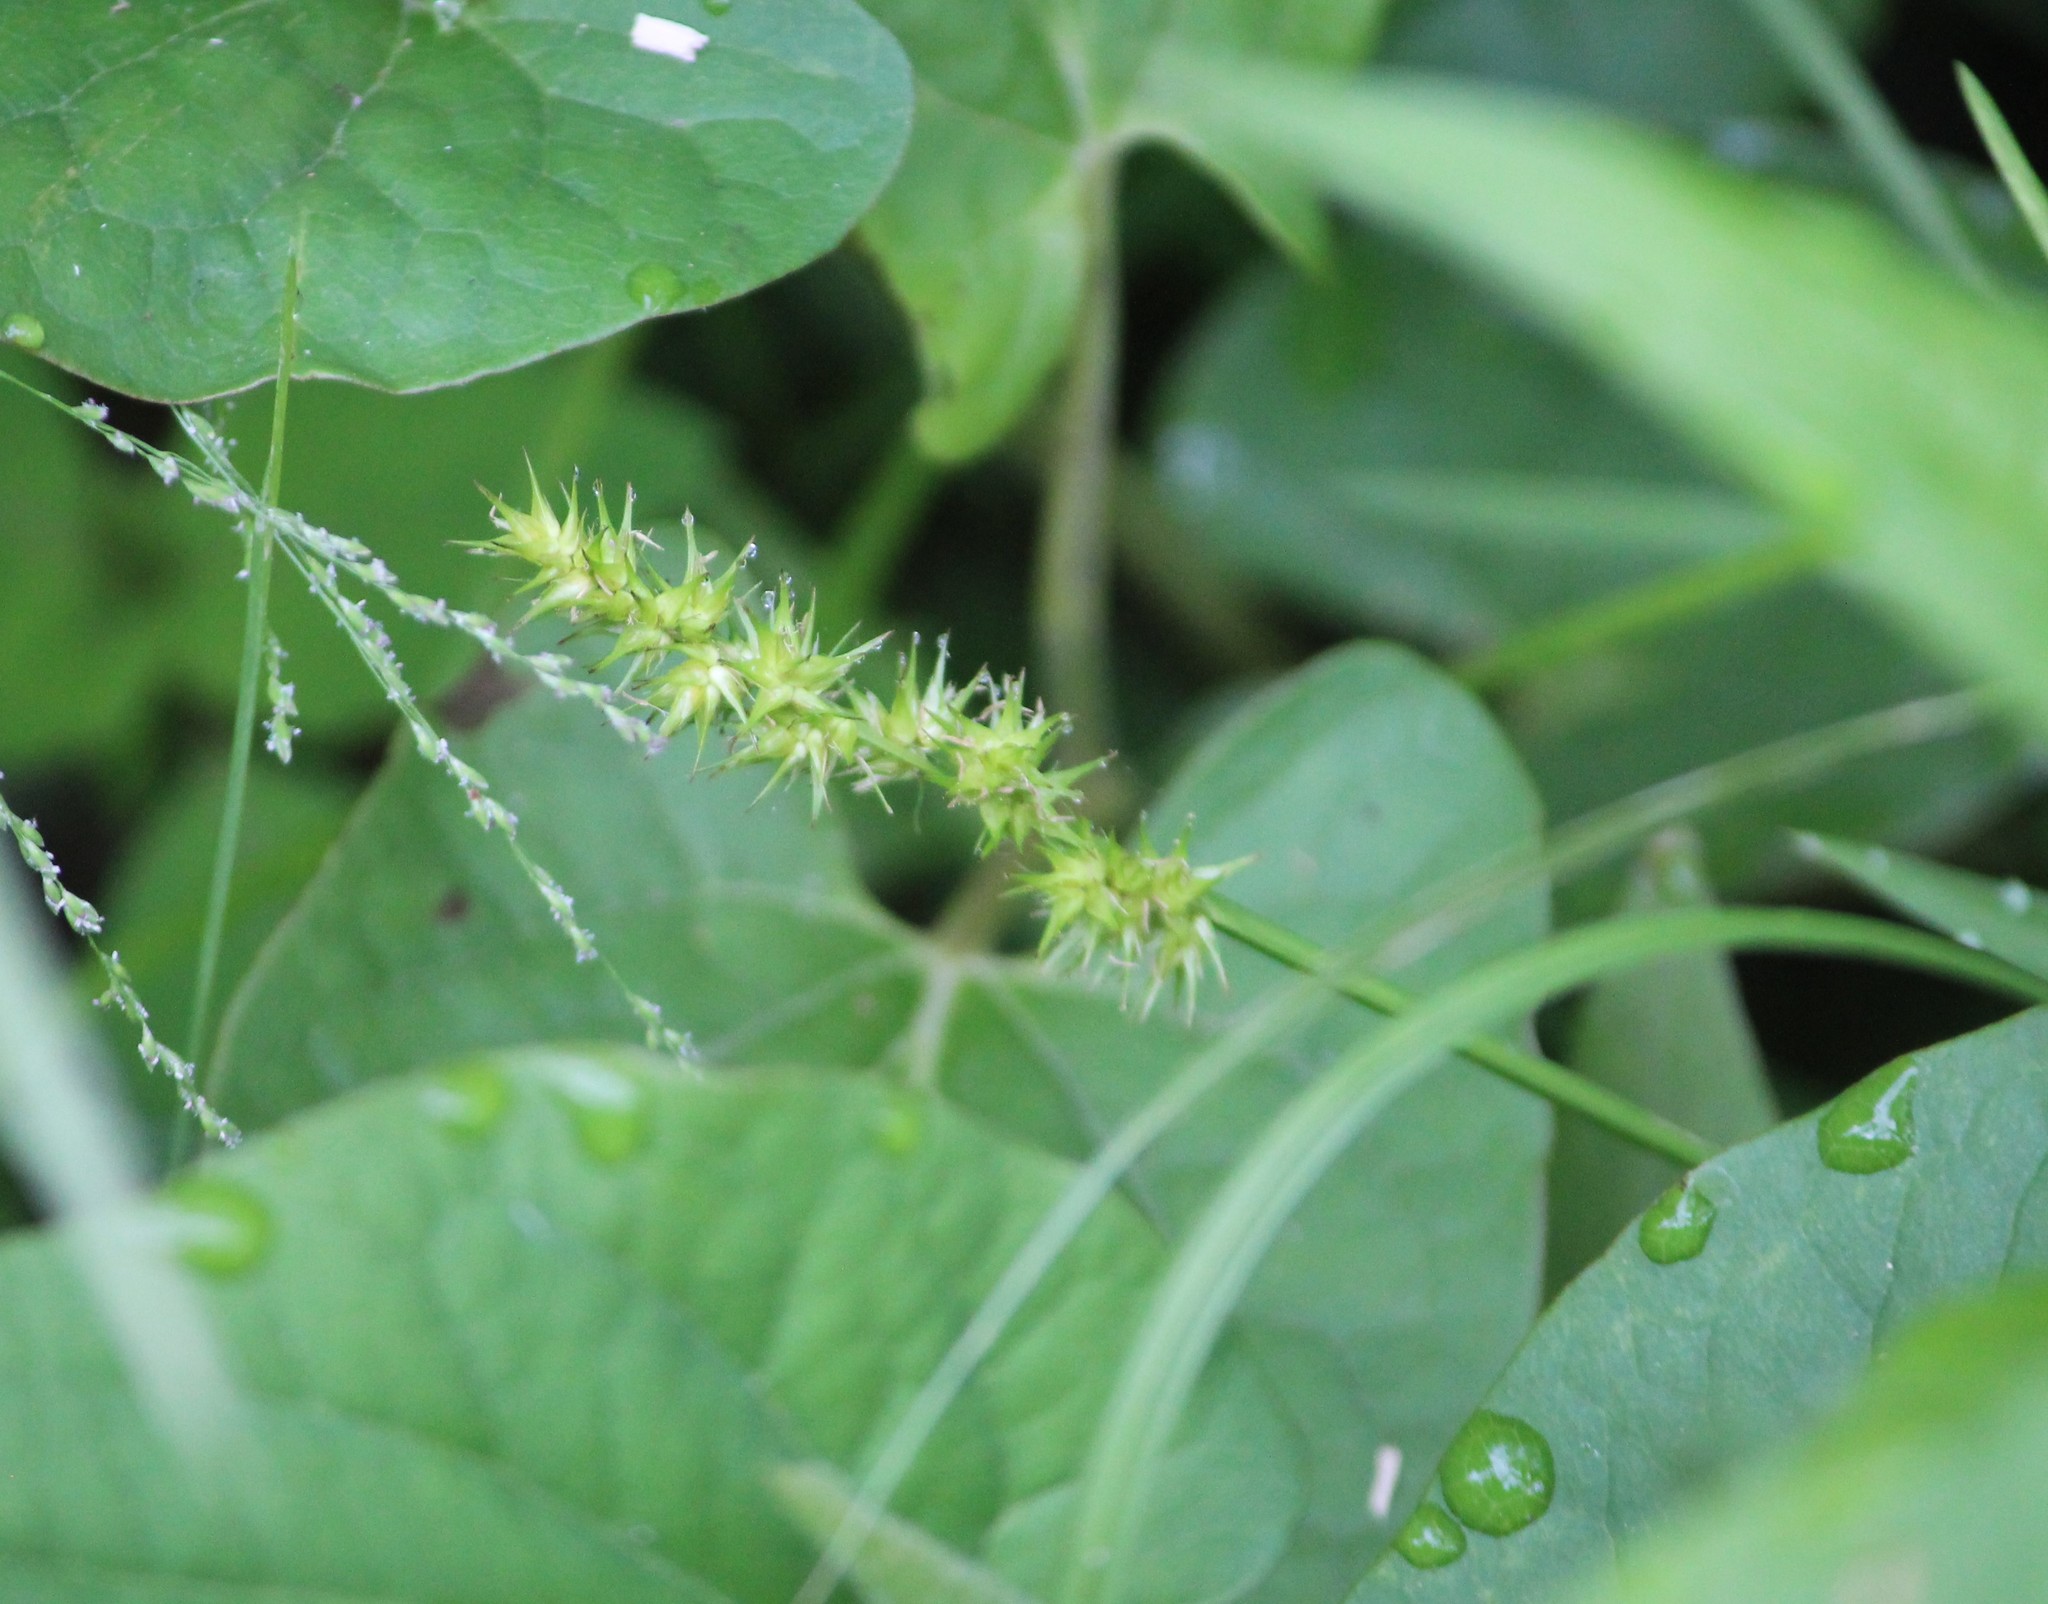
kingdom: Plantae
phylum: Tracheophyta
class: Liliopsida
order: Poales
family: Cyperaceae
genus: Carex
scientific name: Carex stipata
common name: Awl-fruited sedge
